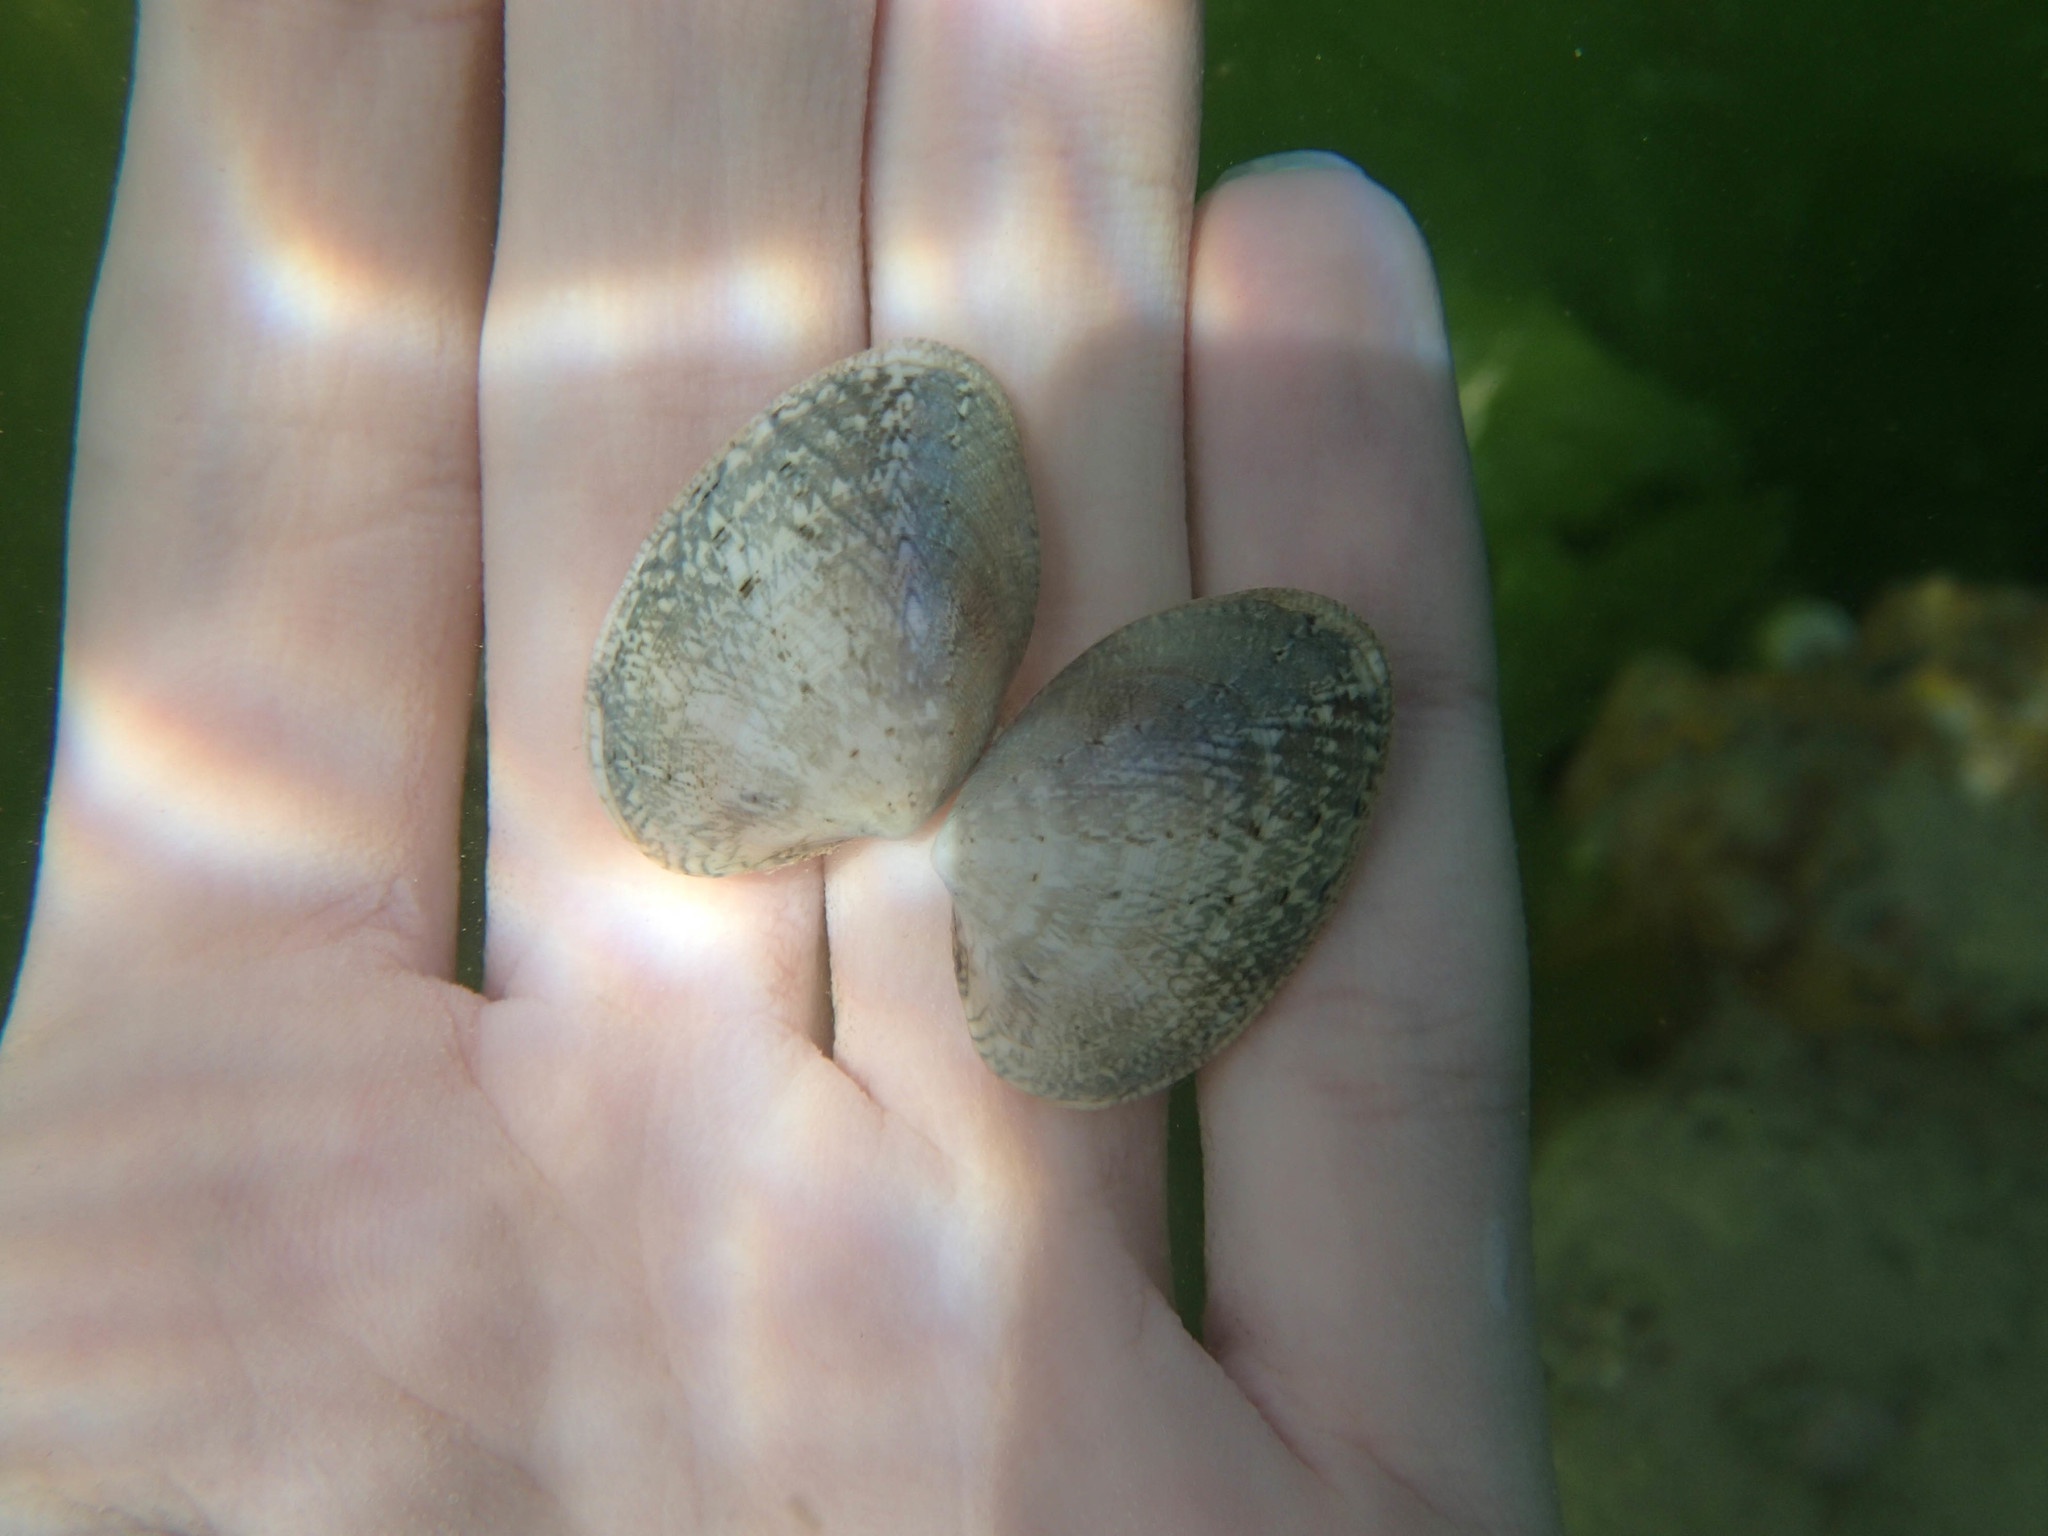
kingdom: Animalia
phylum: Mollusca
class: Bivalvia
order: Venerida
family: Veneridae
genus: Polititapes
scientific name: Polititapes aureus
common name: Golden carpet shell
